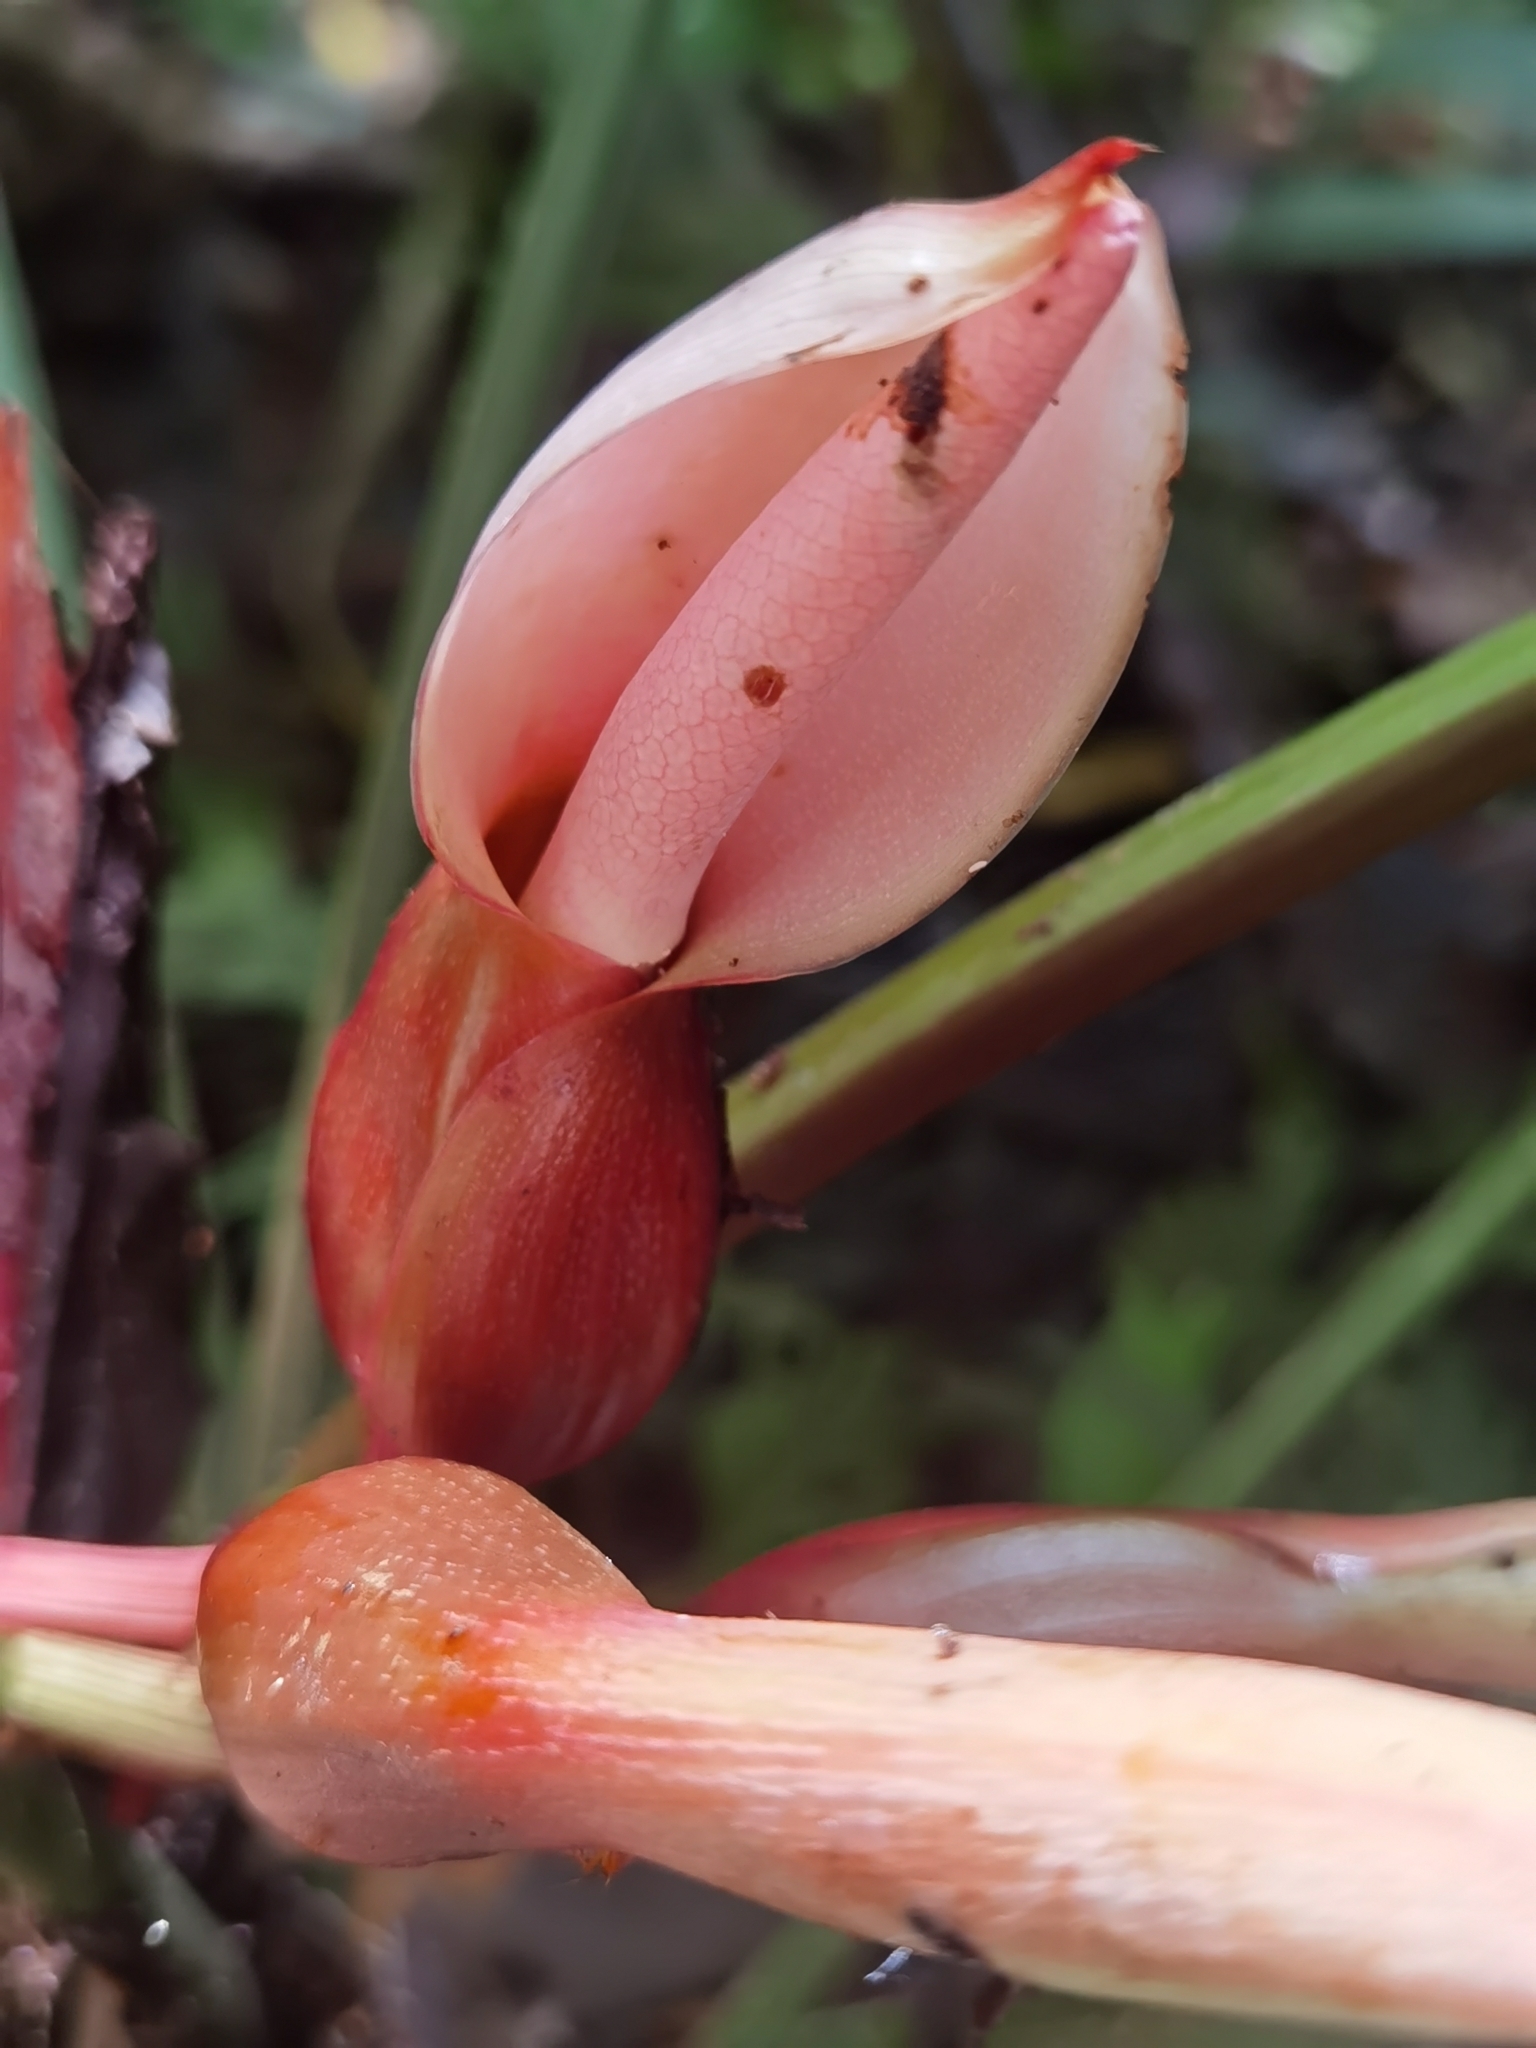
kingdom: Plantae
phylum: Tracheophyta
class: Liliopsida
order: Alismatales
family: Araceae
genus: Philodendron
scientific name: Philodendron grandipes
